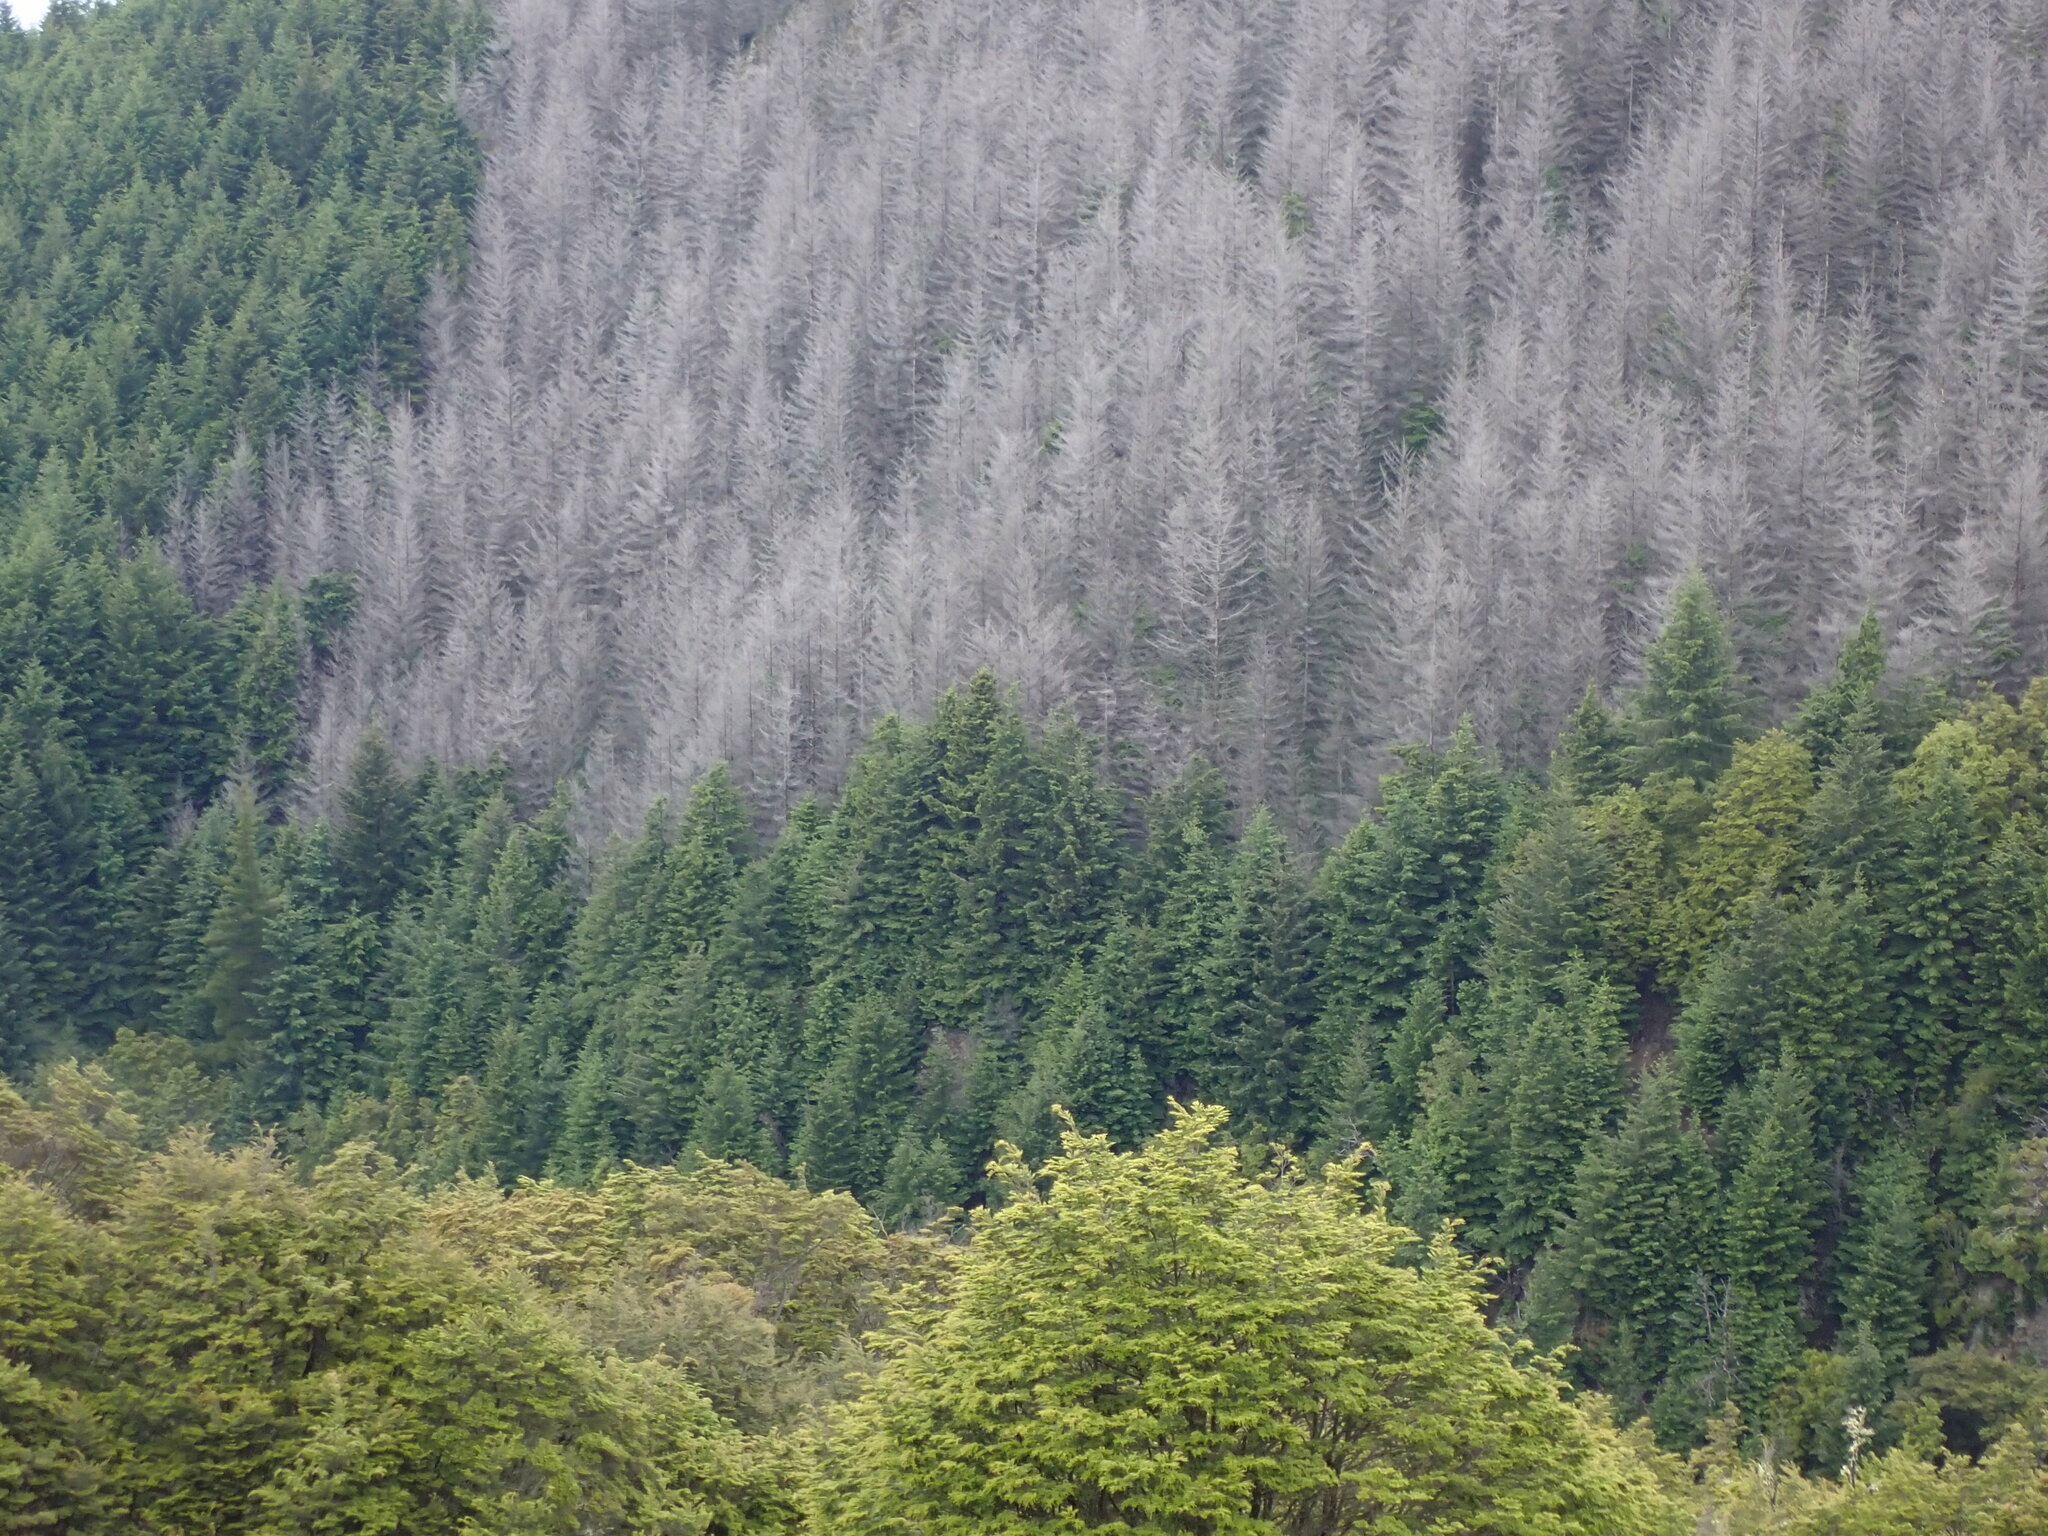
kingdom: Plantae
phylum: Tracheophyta
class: Pinopsida
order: Pinales
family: Pinaceae
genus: Pseudotsuga
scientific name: Pseudotsuga menziesii
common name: Douglas fir
